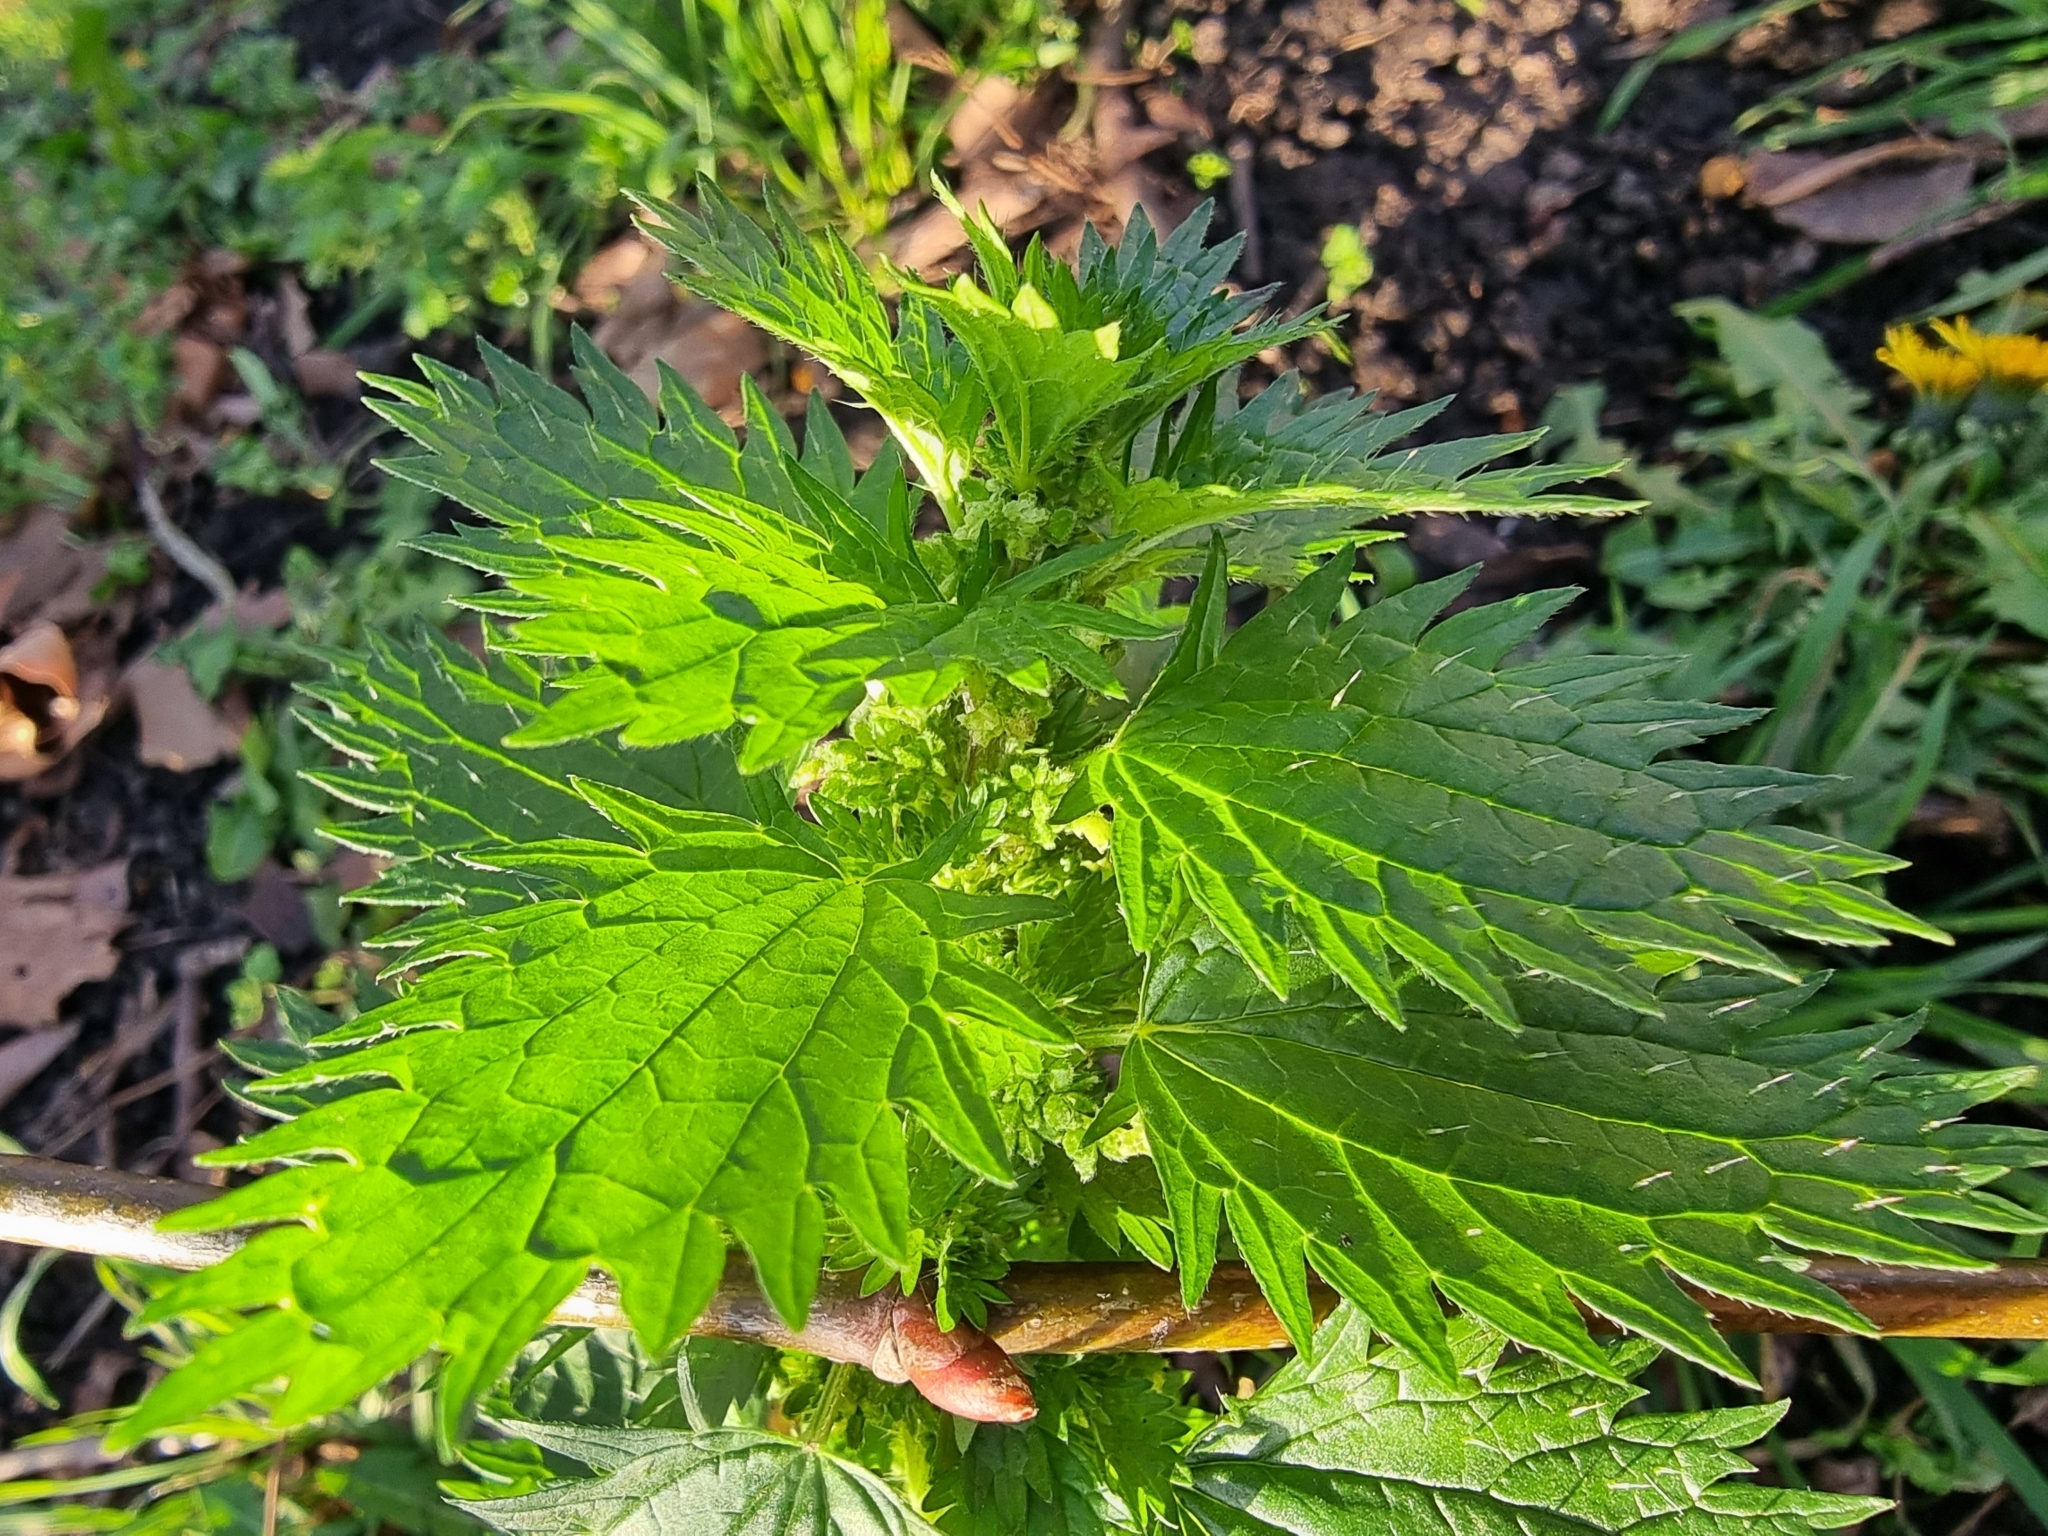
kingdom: Plantae
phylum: Tracheophyta
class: Magnoliopsida
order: Rosales
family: Urticaceae
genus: Urtica
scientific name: Urtica urens
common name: Dwarf nettle
